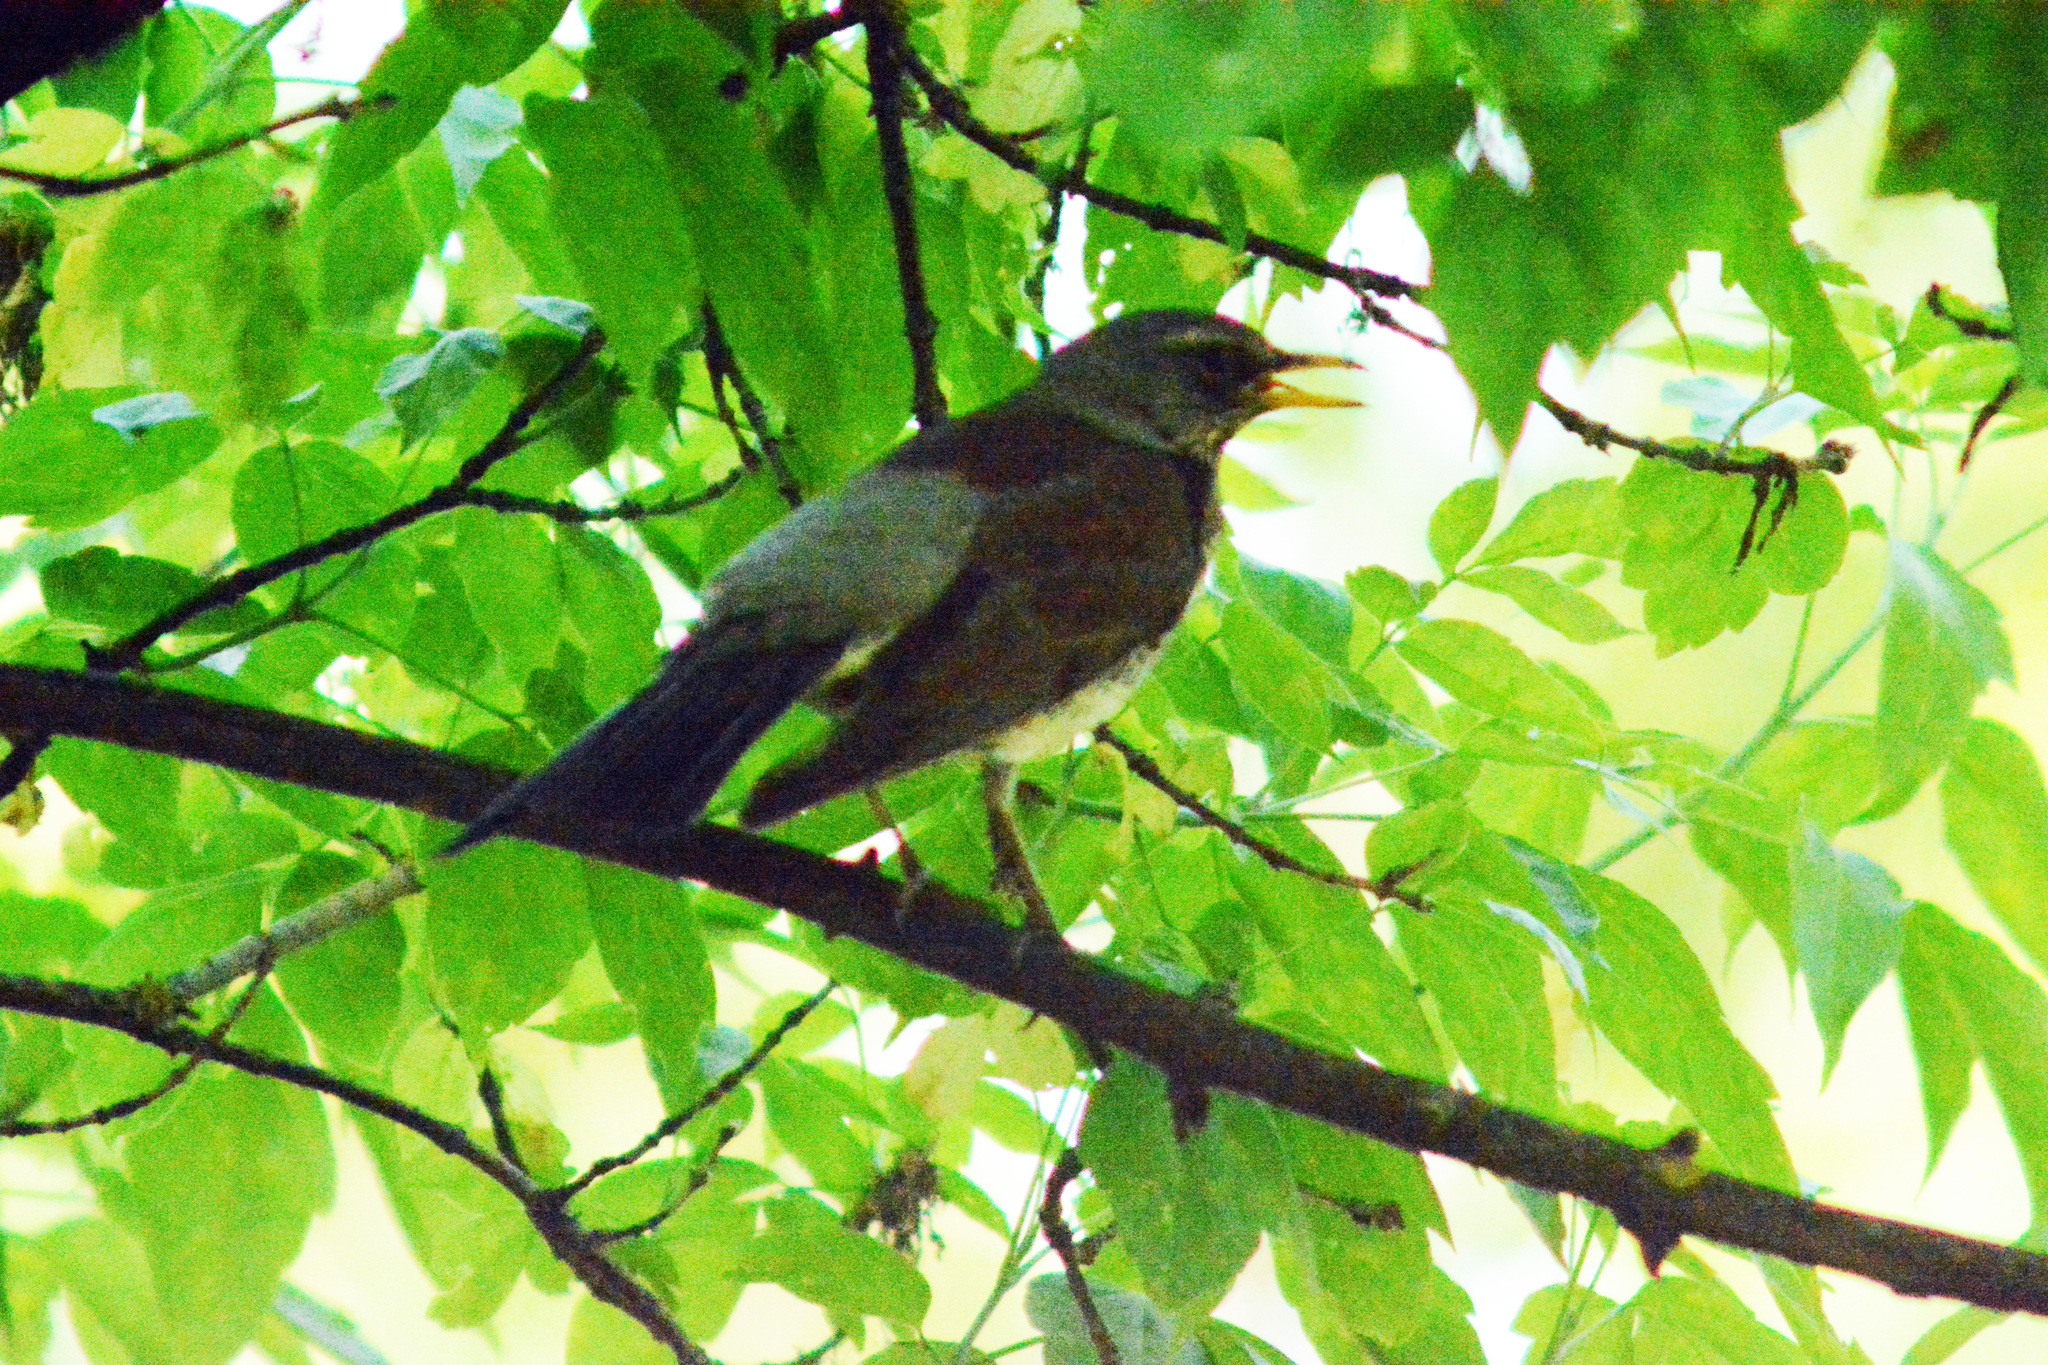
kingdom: Animalia
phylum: Chordata
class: Aves
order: Passeriformes
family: Turdidae
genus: Turdus
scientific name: Turdus pilaris
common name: Fieldfare
